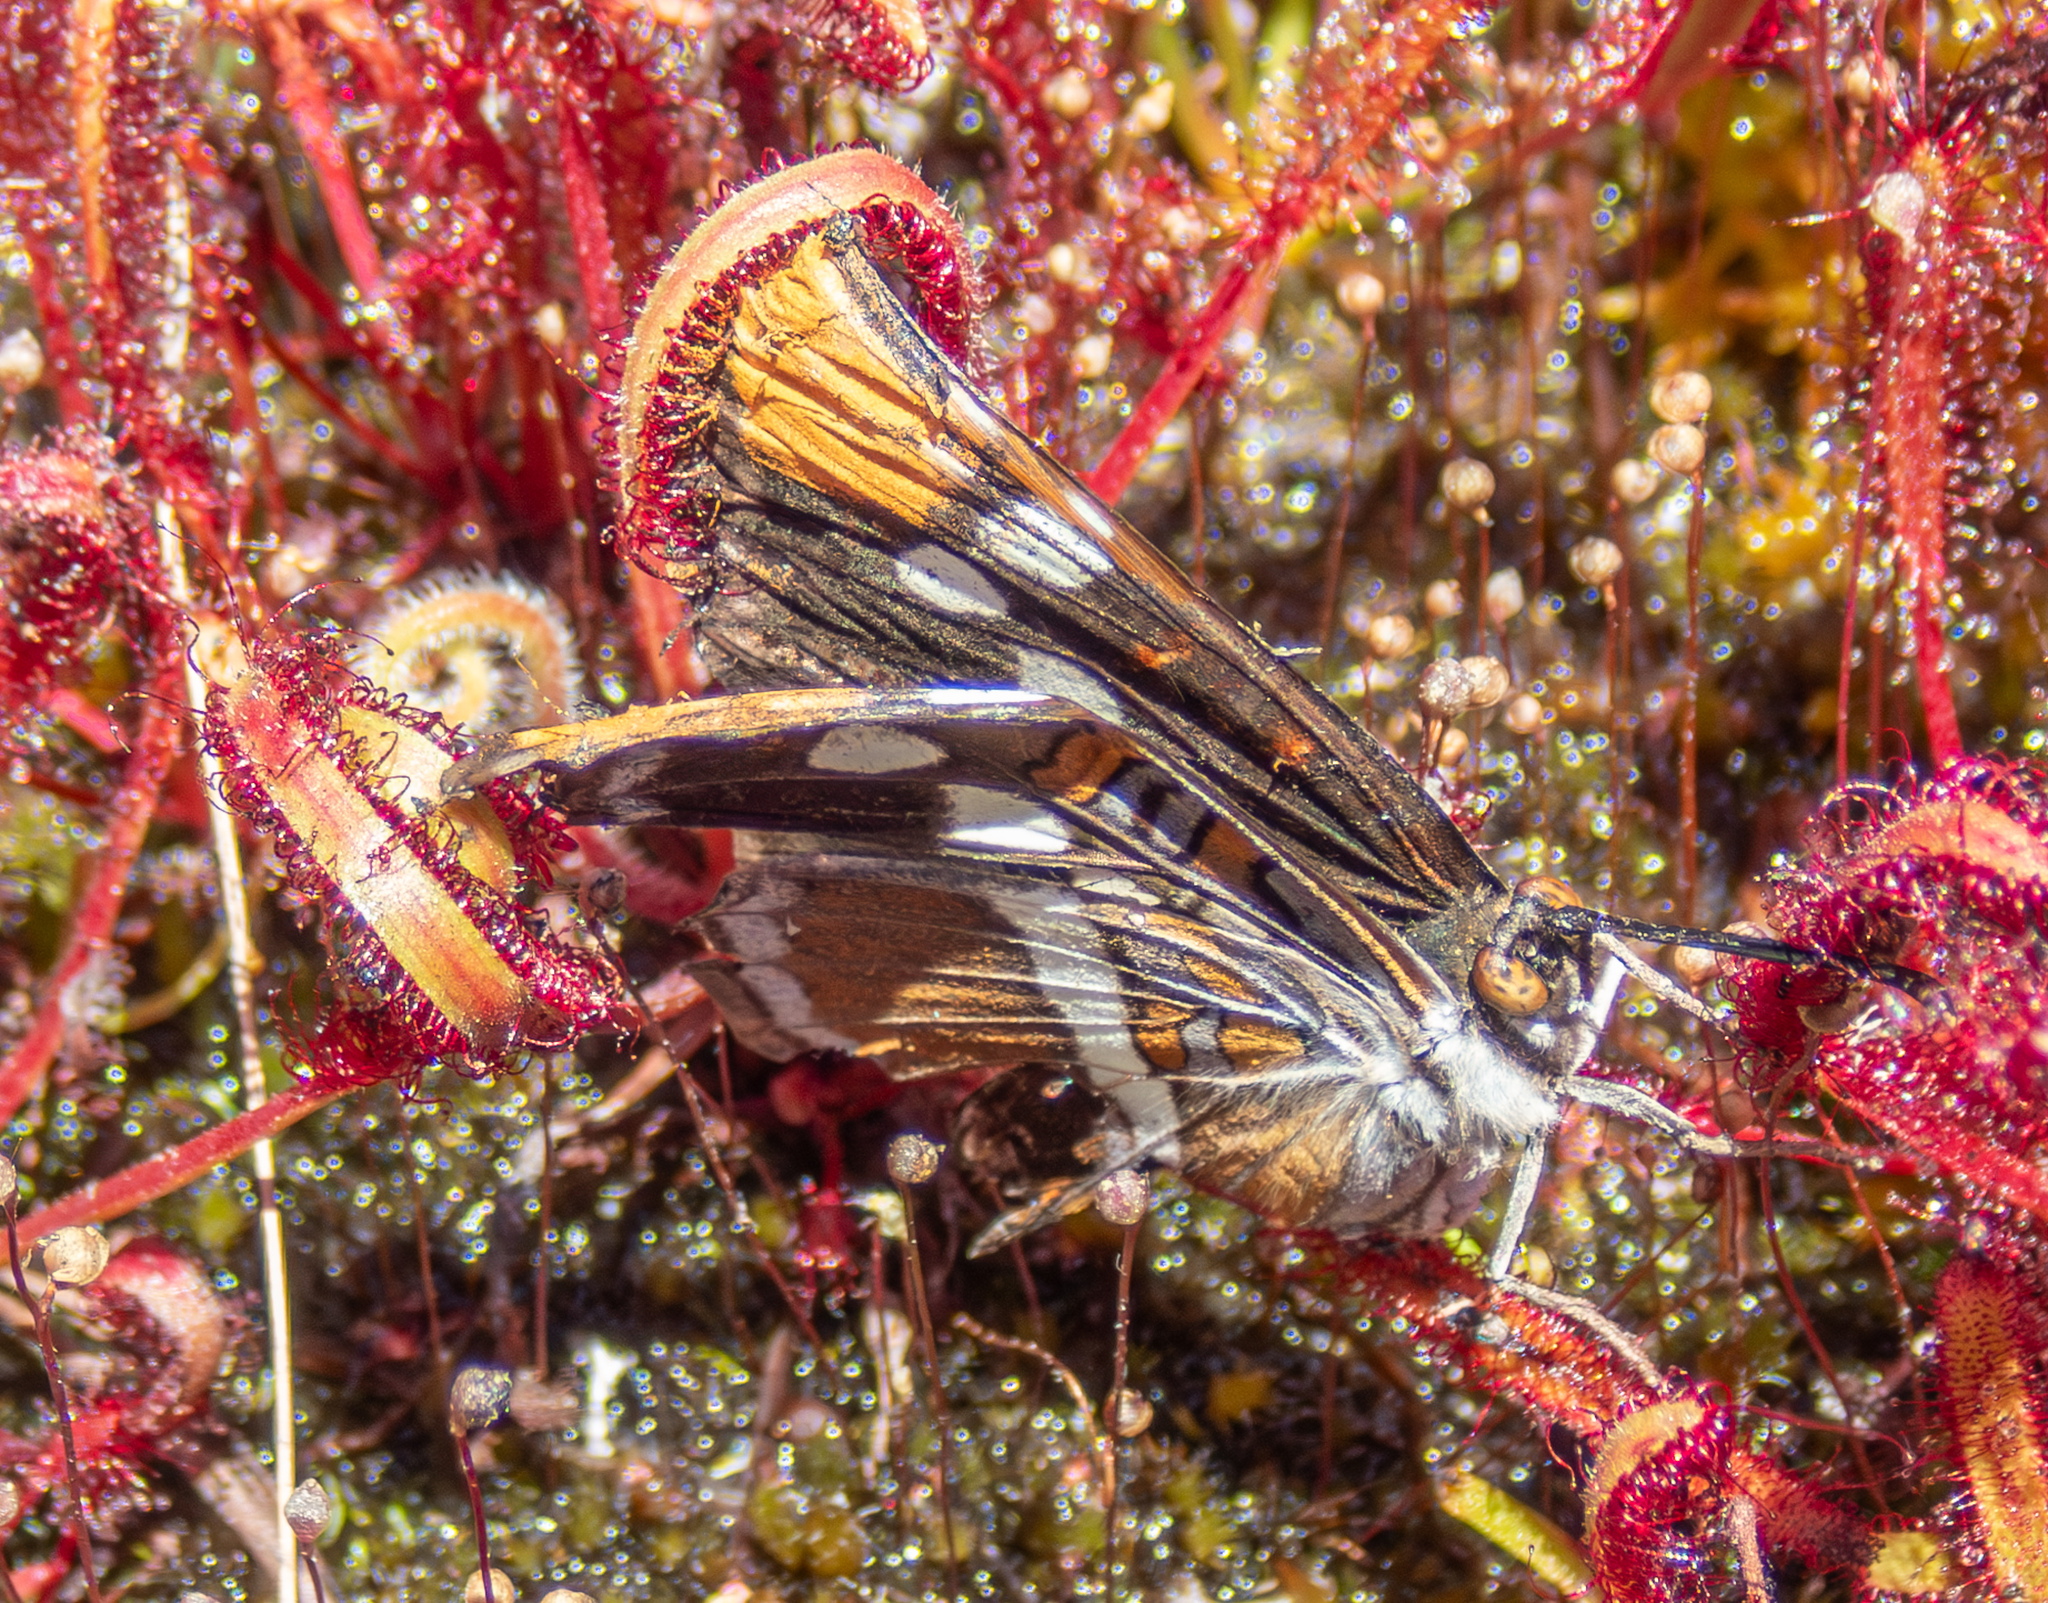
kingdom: Animalia
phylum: Arthropoda
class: Insecta
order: Lepidoptera
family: Nymphalidae
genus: Limenitis
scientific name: Limenitis bredowii
